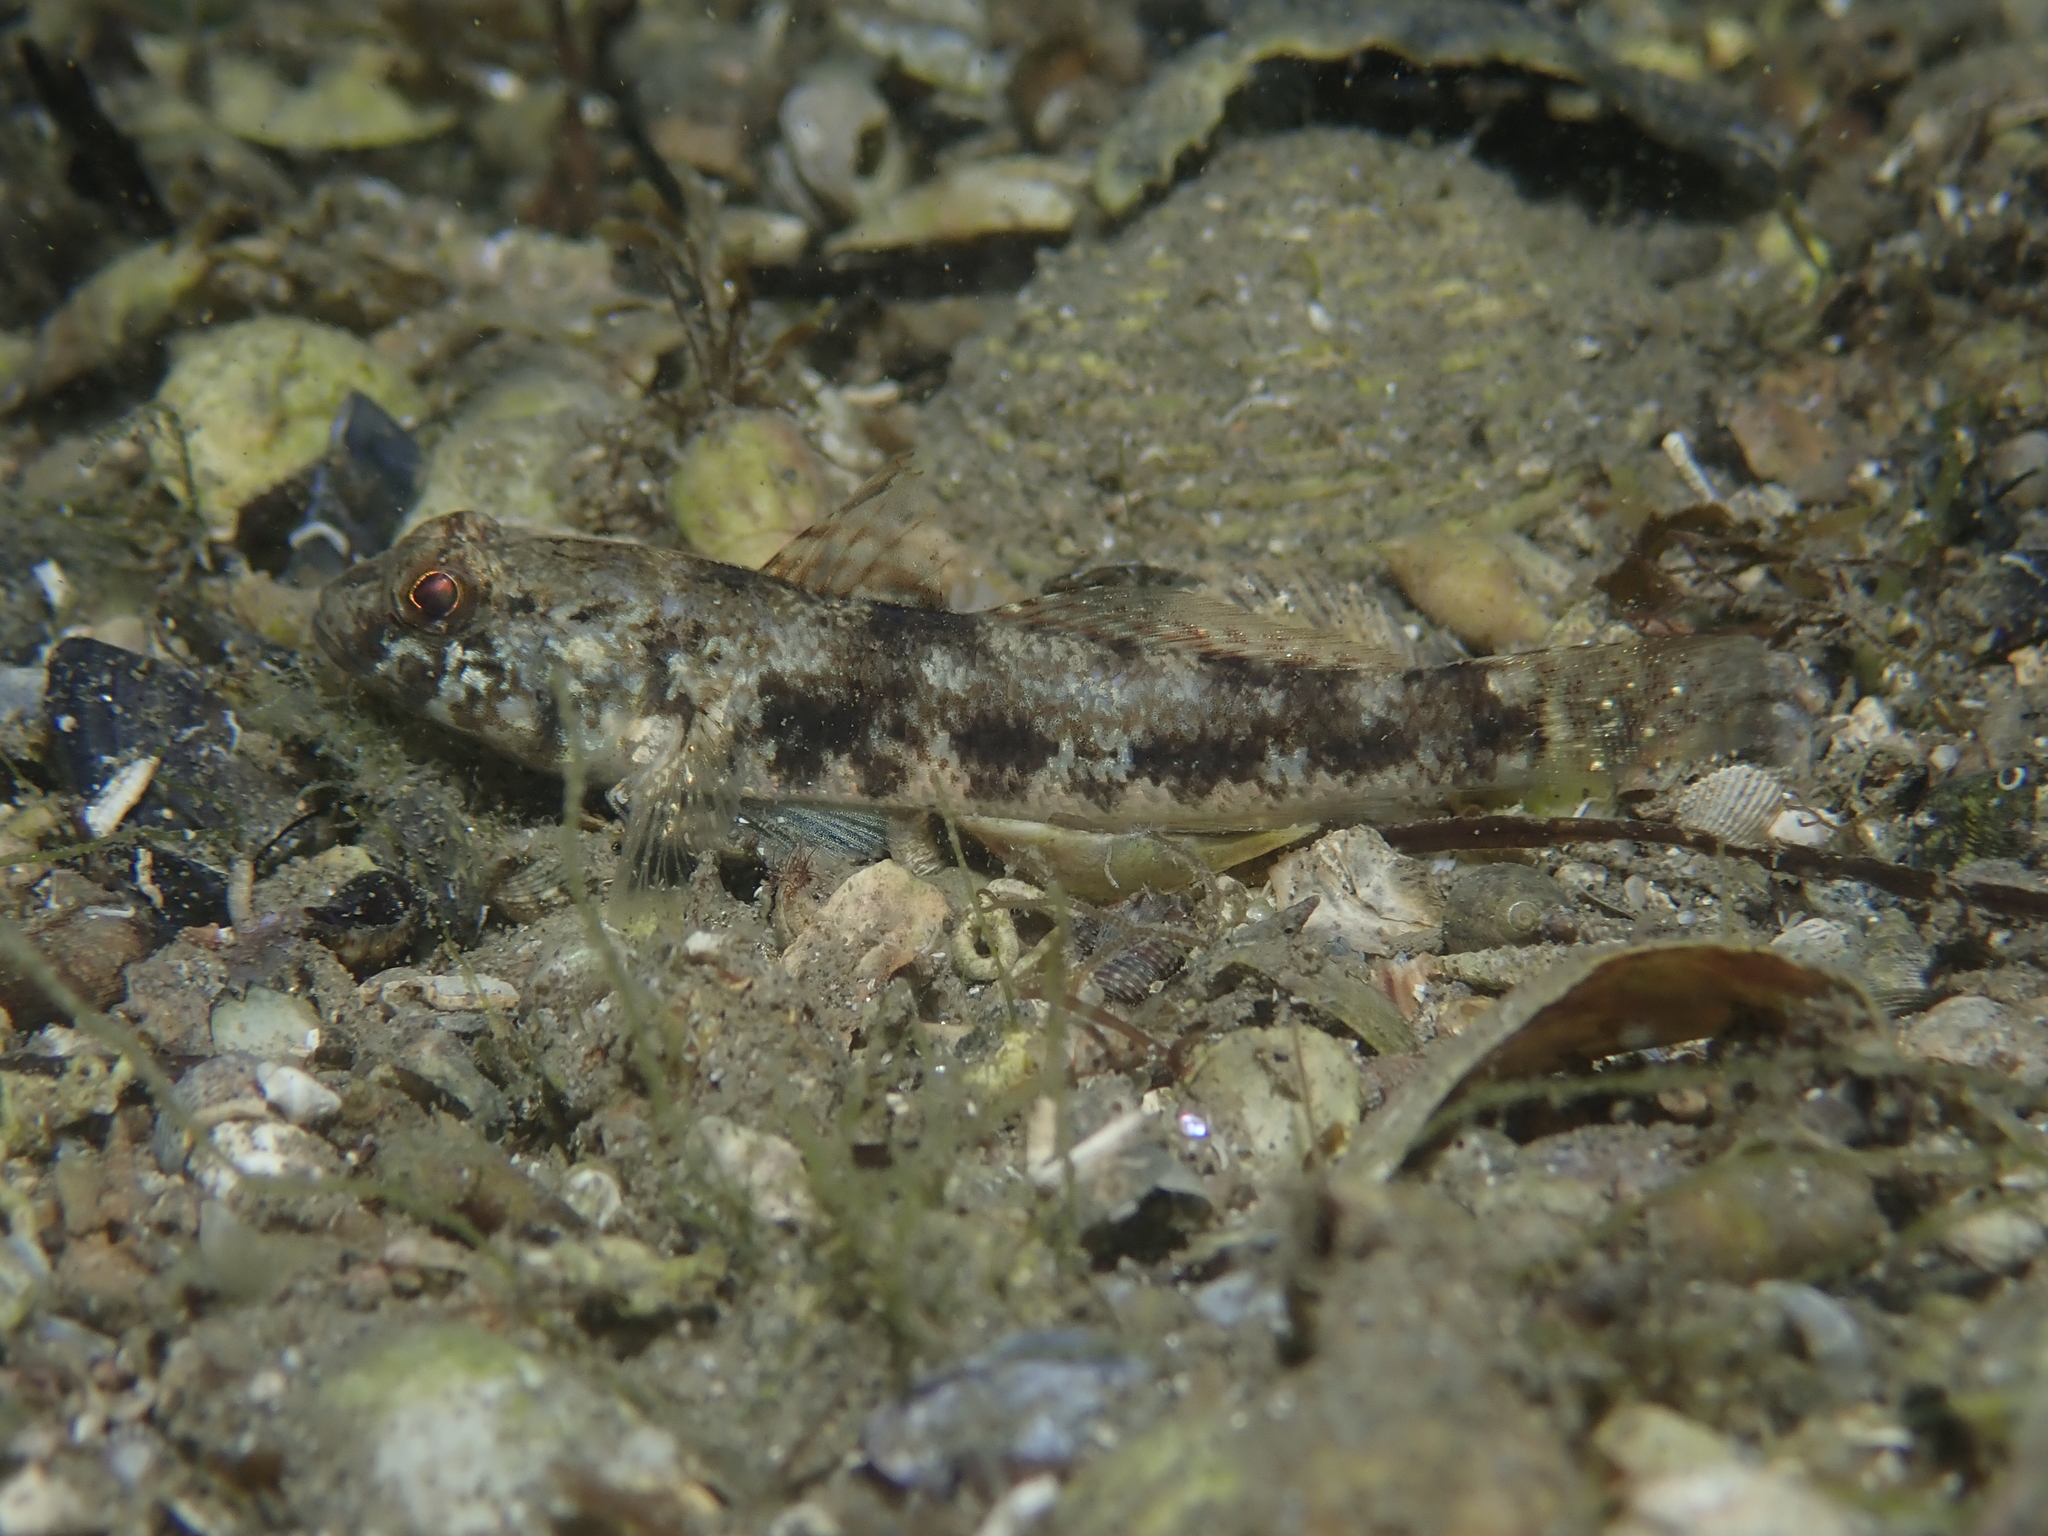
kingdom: Animalia
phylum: Chordata
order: Perciformes
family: Gobiidae
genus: Gobius
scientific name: Gobius niger
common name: Black goby
